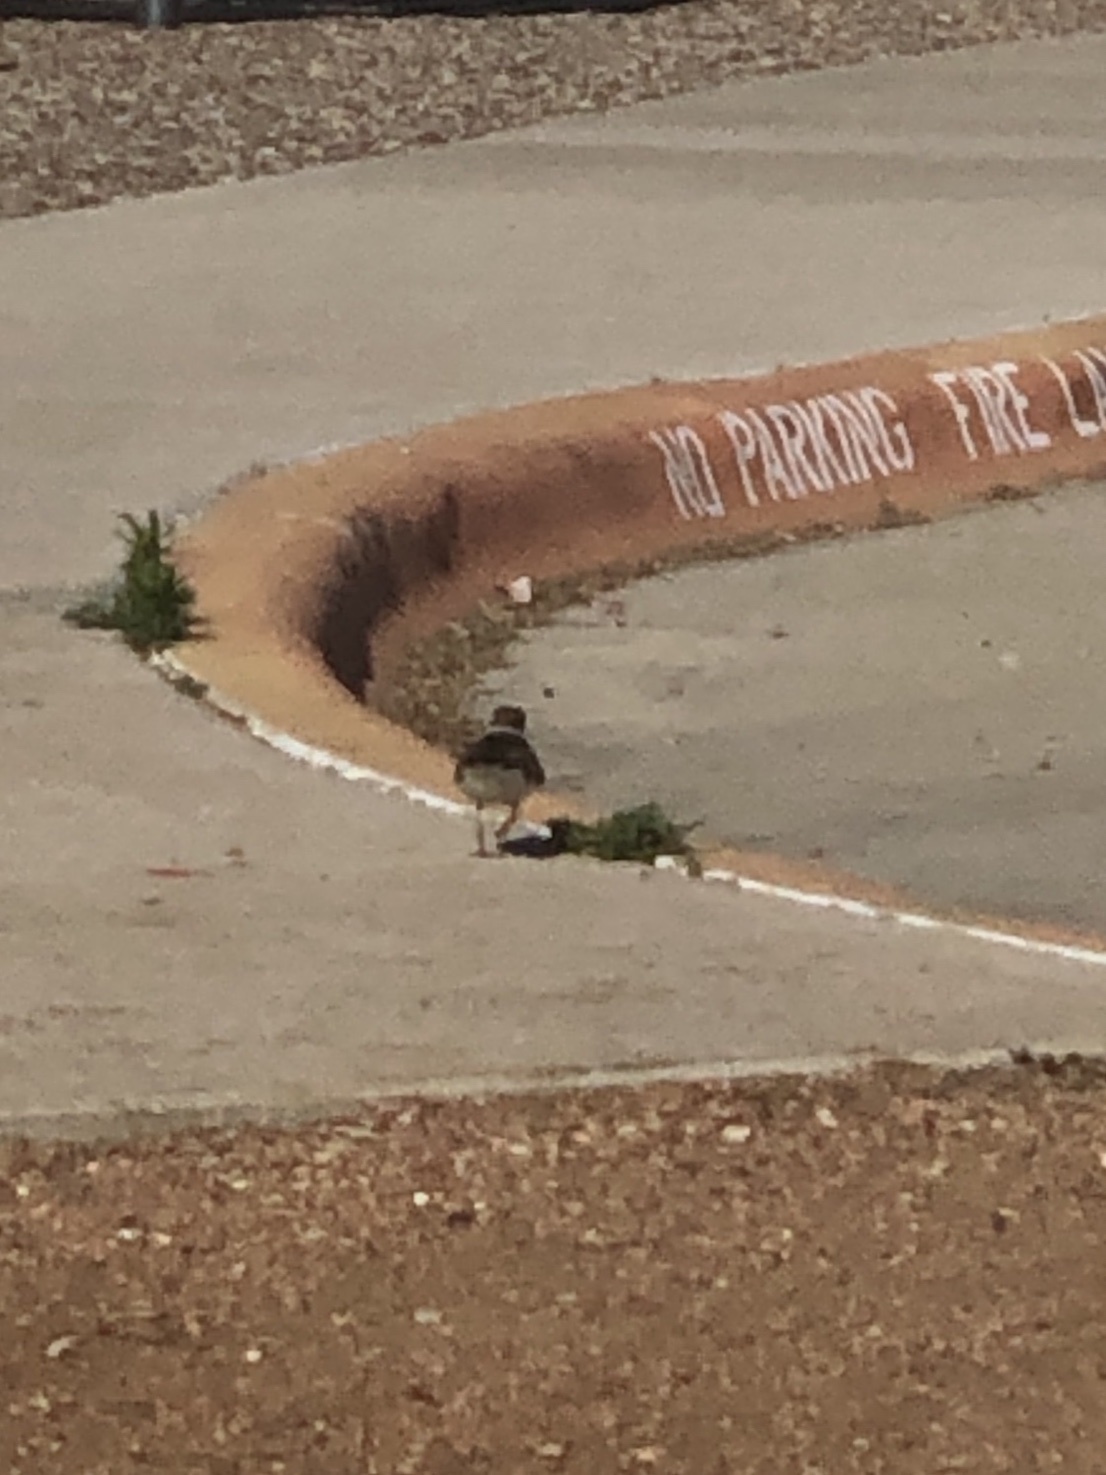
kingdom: Animalia
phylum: Chordata
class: Aves
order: Charadriiformes
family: Charadriidae
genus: Charadrius
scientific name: Charadrius vociferus
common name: Killdeer
